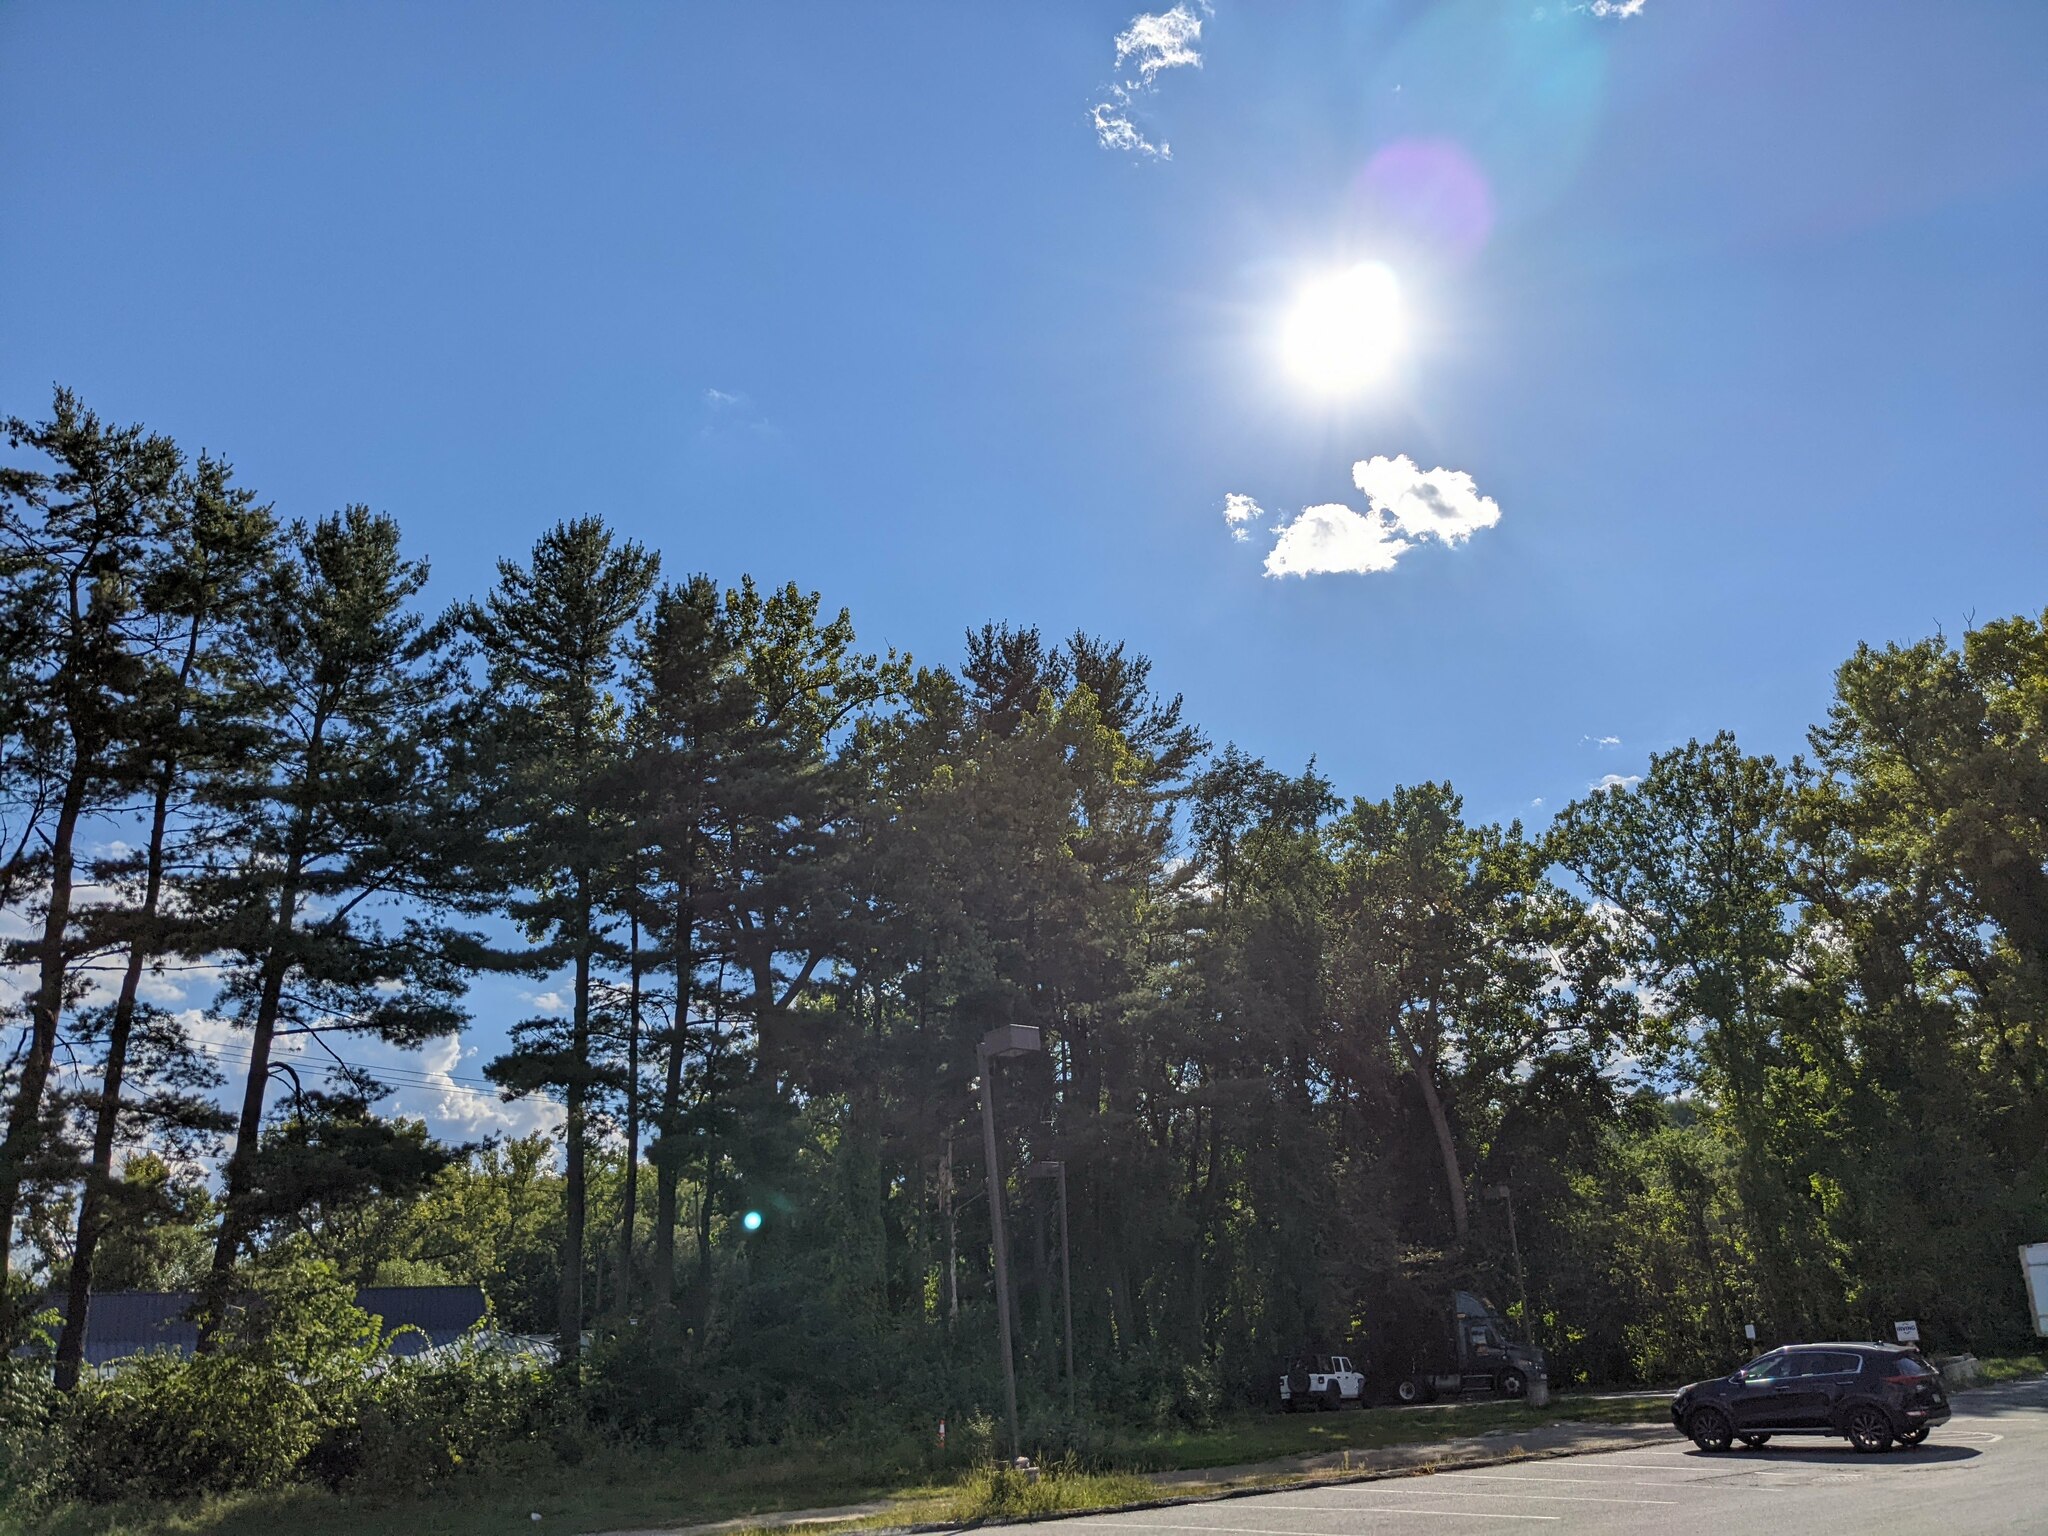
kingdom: Plantae
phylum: Tracheophyta
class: Pinopsida
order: Pinales
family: Pinaceae
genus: Pinus
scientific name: Pinus strobus
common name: Weymouth pine
